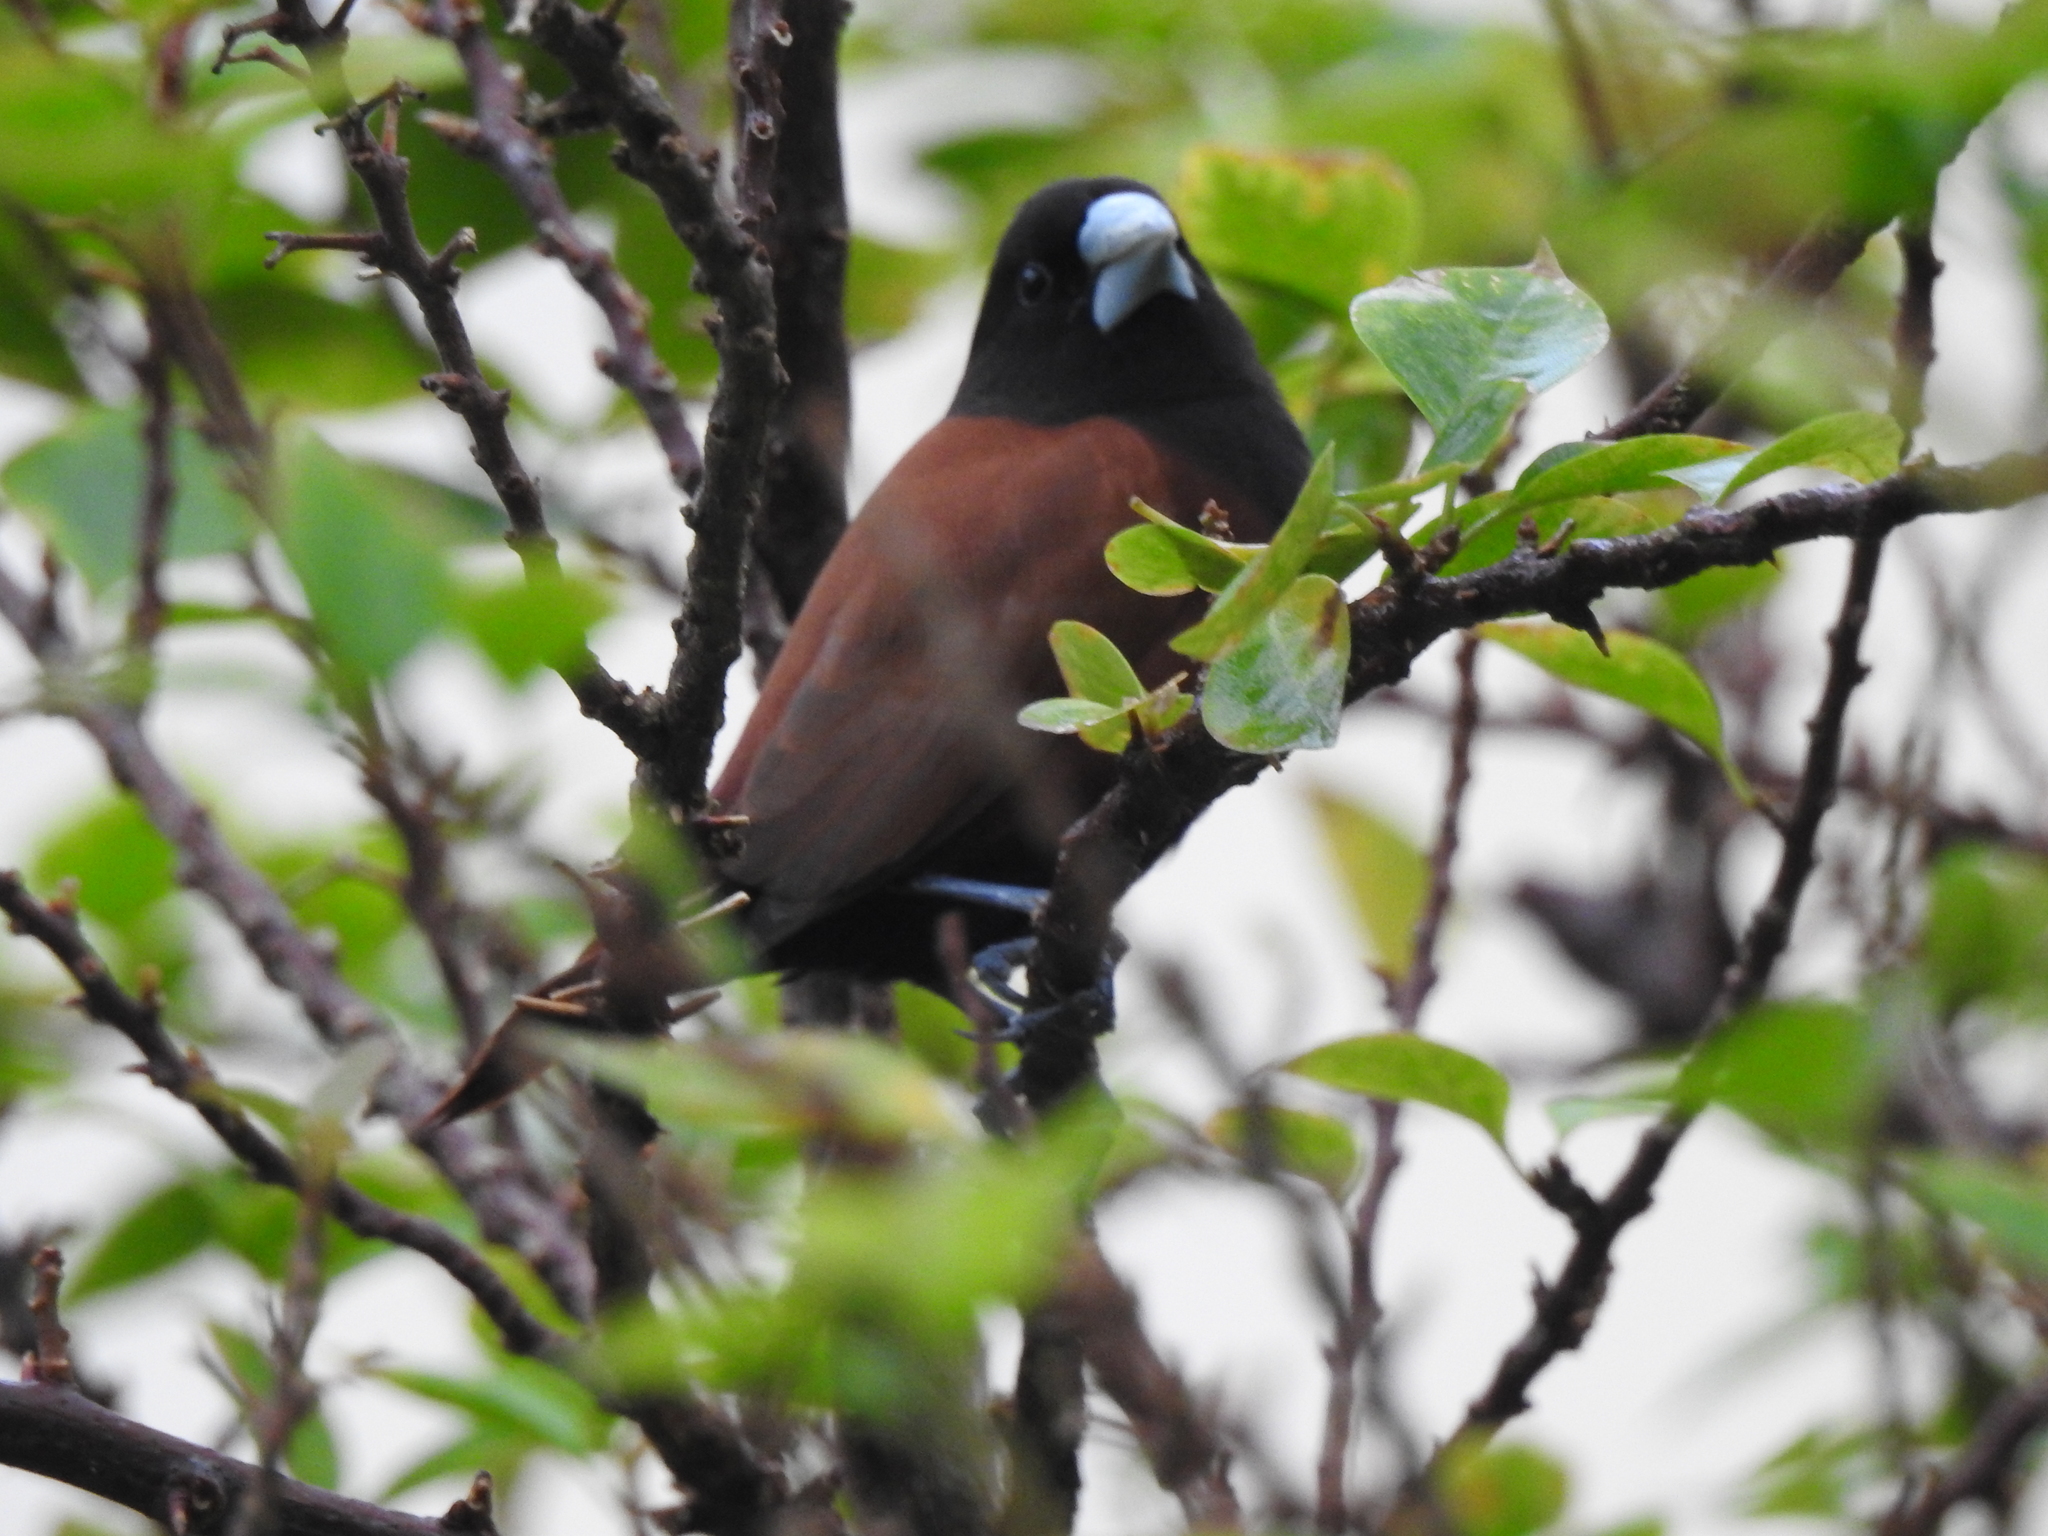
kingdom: Animalia
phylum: Chordata
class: Aves
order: Passeriformes
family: Estrildidae
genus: Lonchura
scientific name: Lonchura atricapilla
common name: Chestnut munia
